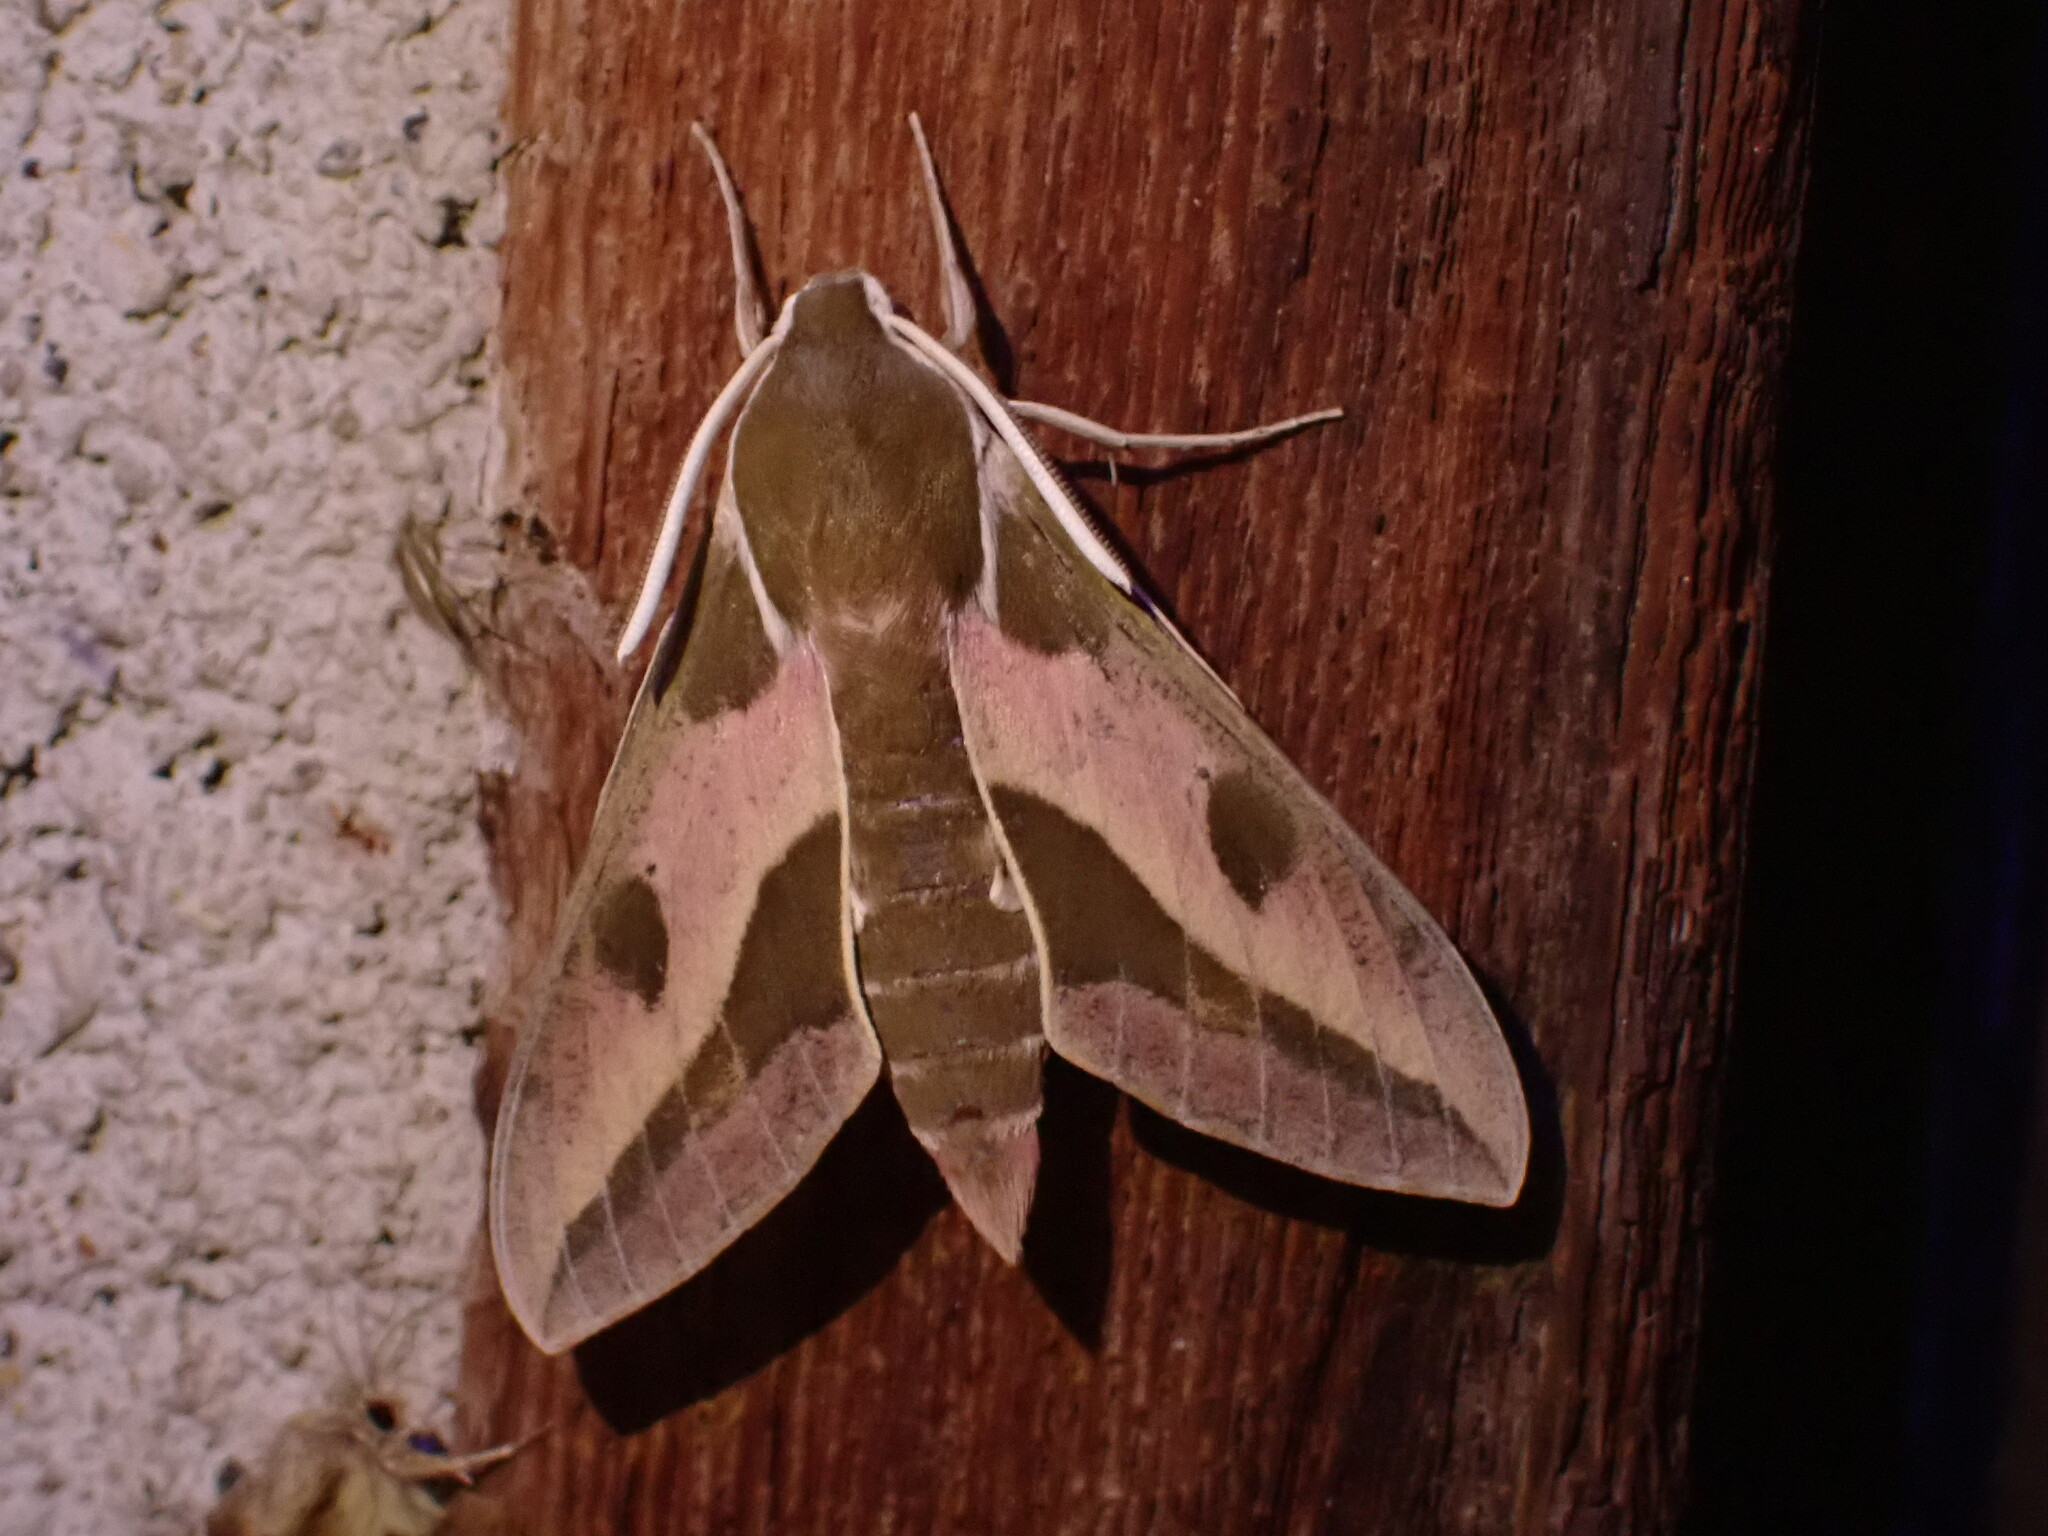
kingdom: Animalia
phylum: Arthropoda
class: Insecta
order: Lepidoptera
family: Sphingidae
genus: Hyles
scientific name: Hyles euphorbiae
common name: Spurge hawk-moth
